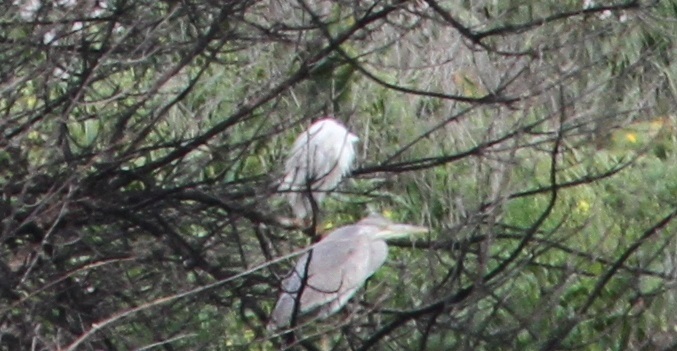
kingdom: Animalia
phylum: Chordata
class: Aves
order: Pelecaniformes
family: Ardeidae
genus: Ardea
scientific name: Ardea cinerea
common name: Grey heron
